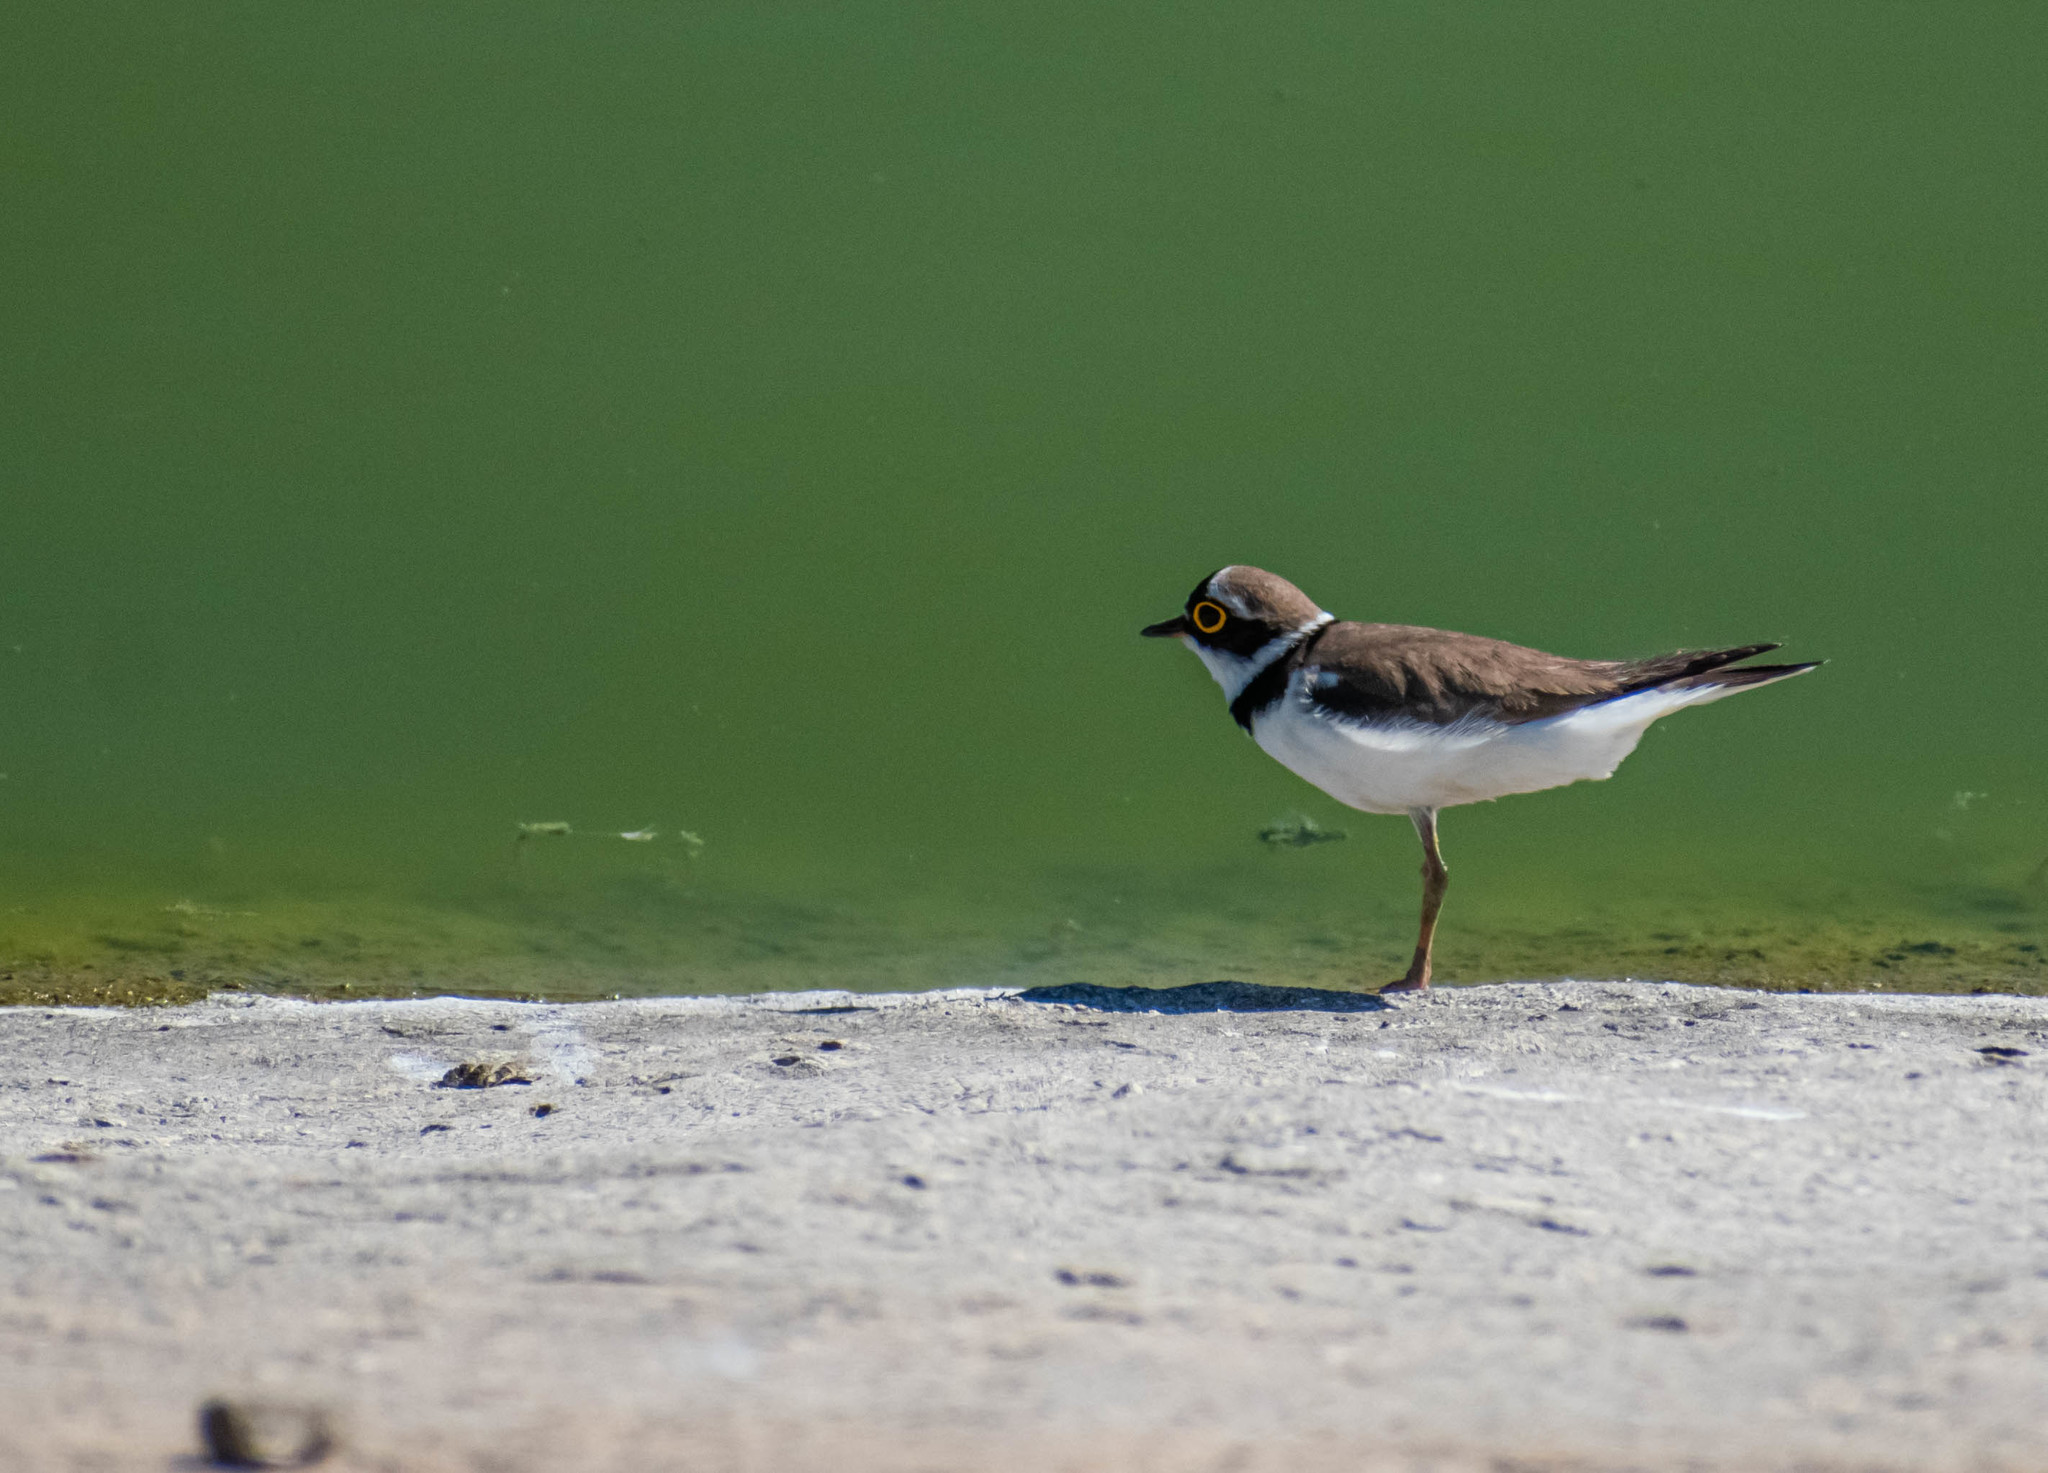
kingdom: Animalia
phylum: Chordata
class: Aves
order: Charadriiformes
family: Charadriidae
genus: Charadrius
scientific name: Charadrius dubius
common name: Little ringed plover
